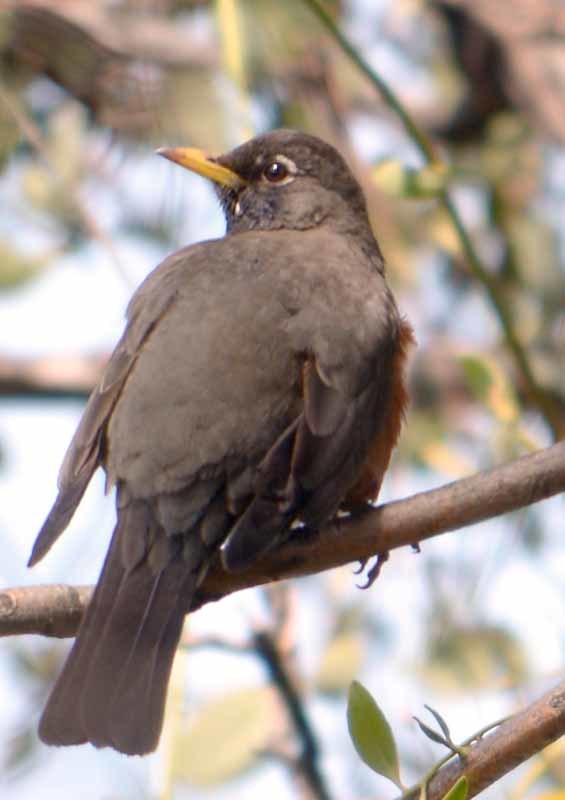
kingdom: Animalia
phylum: Chordata
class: Aves
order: Passeriformes
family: Turdidae
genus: Turdus
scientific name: Turdus migratorius
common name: American robin
